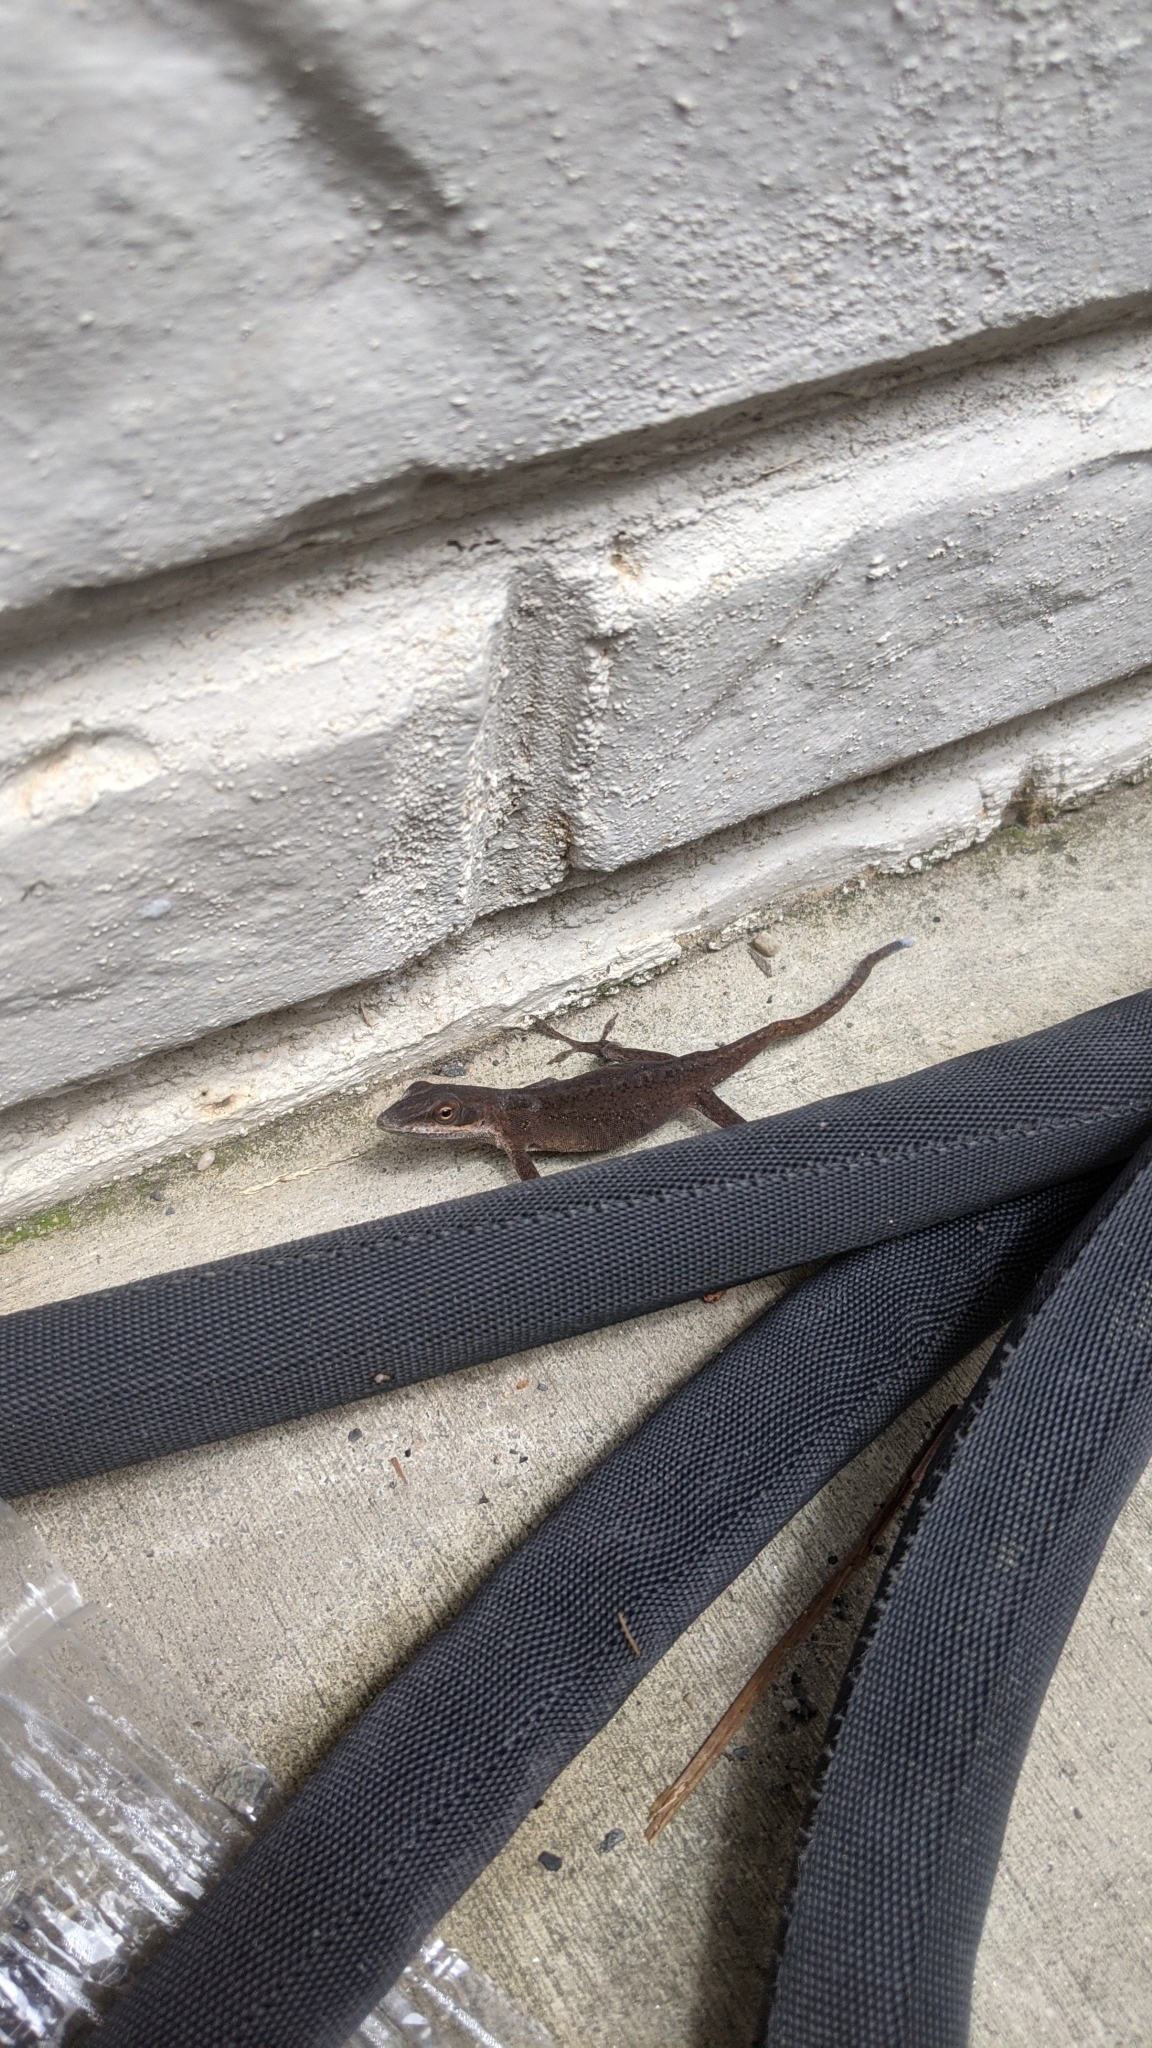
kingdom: Animalia
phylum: Chordata
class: Squamata
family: Dactyloidae
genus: Anolis
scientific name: Anolis carolinensis
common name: Green anole
